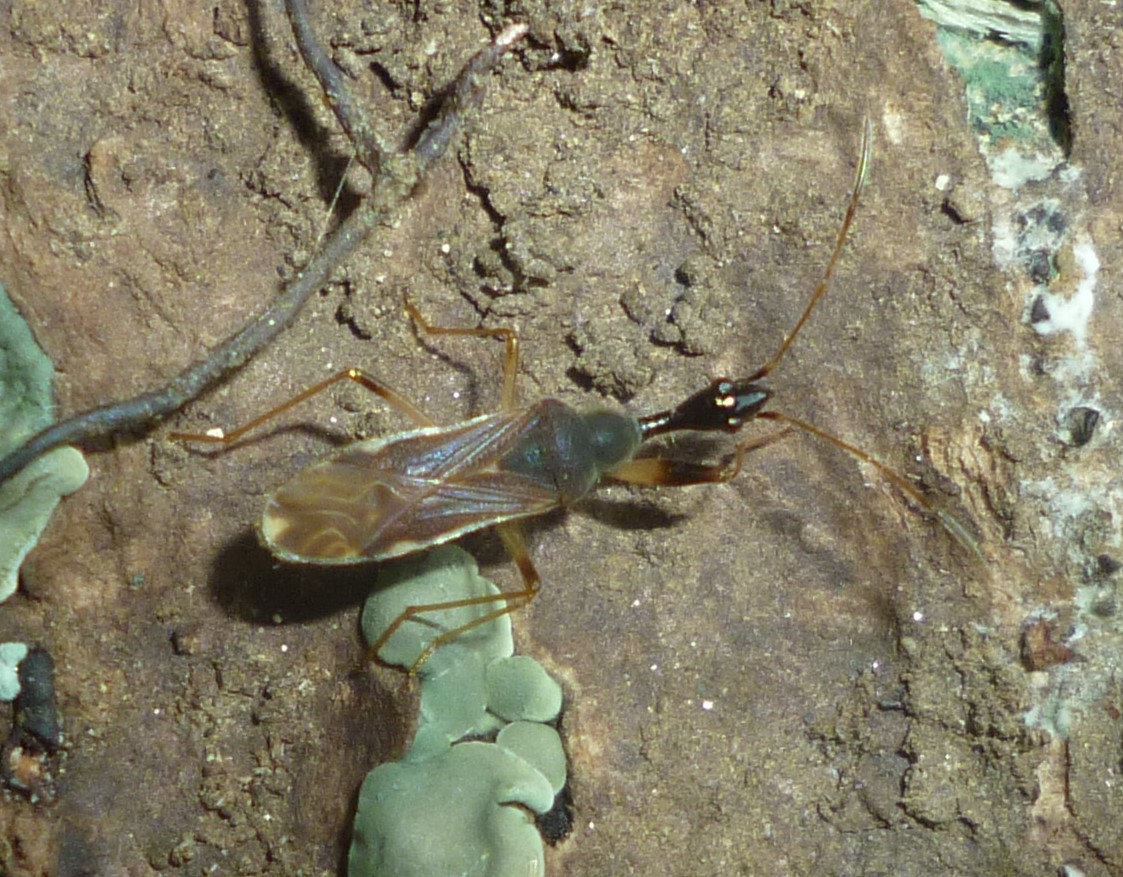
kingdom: Animalia
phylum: Arthropoda
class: Insecta
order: Hemiptera
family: Rhyparochromidae
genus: Myodocha
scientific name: Myodocha serripes
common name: Long-necked seed bug
